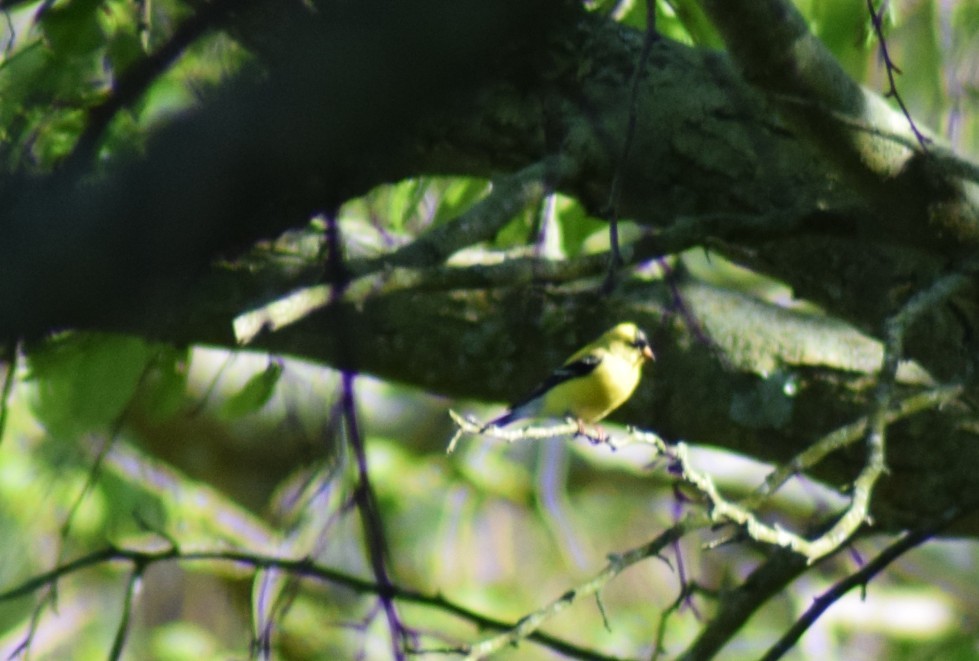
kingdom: Animalia
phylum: Chordata
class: Aves
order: Passeriformes
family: Fringillidae
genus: Spinus
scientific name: Spinus tristis
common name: American goldfinch
